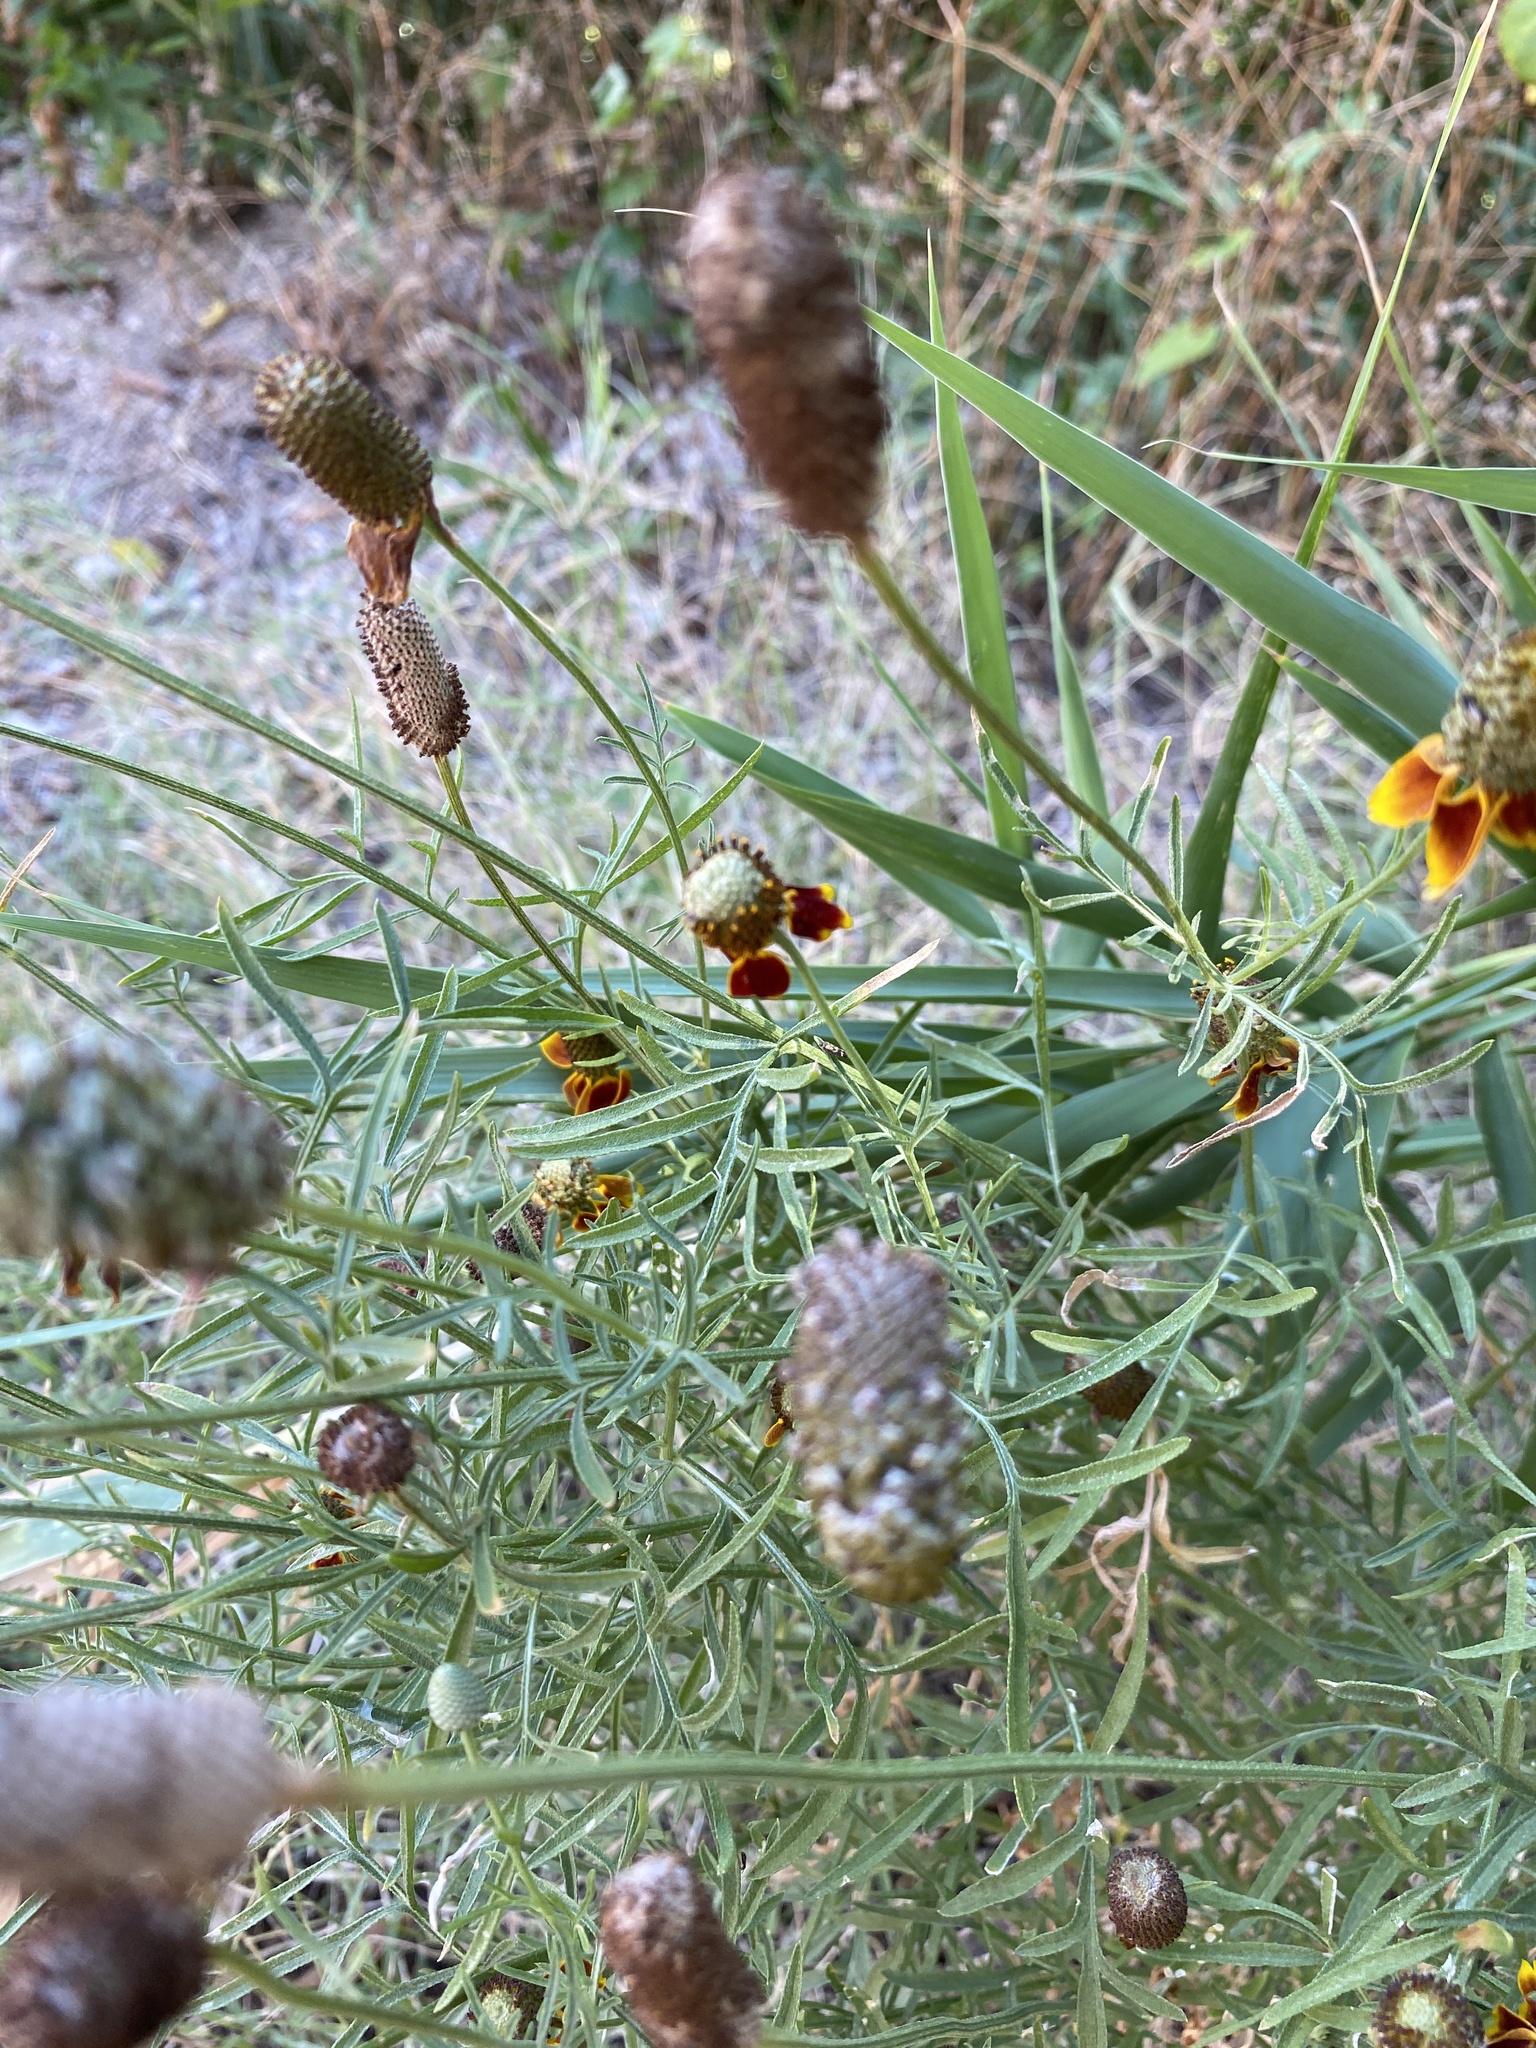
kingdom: Plantae
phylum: Tracheophyta
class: Magnoliopsida
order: Asterales
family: Asteraceae
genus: Ratibida
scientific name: Ratibida columnifera
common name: Prairie coneflower
